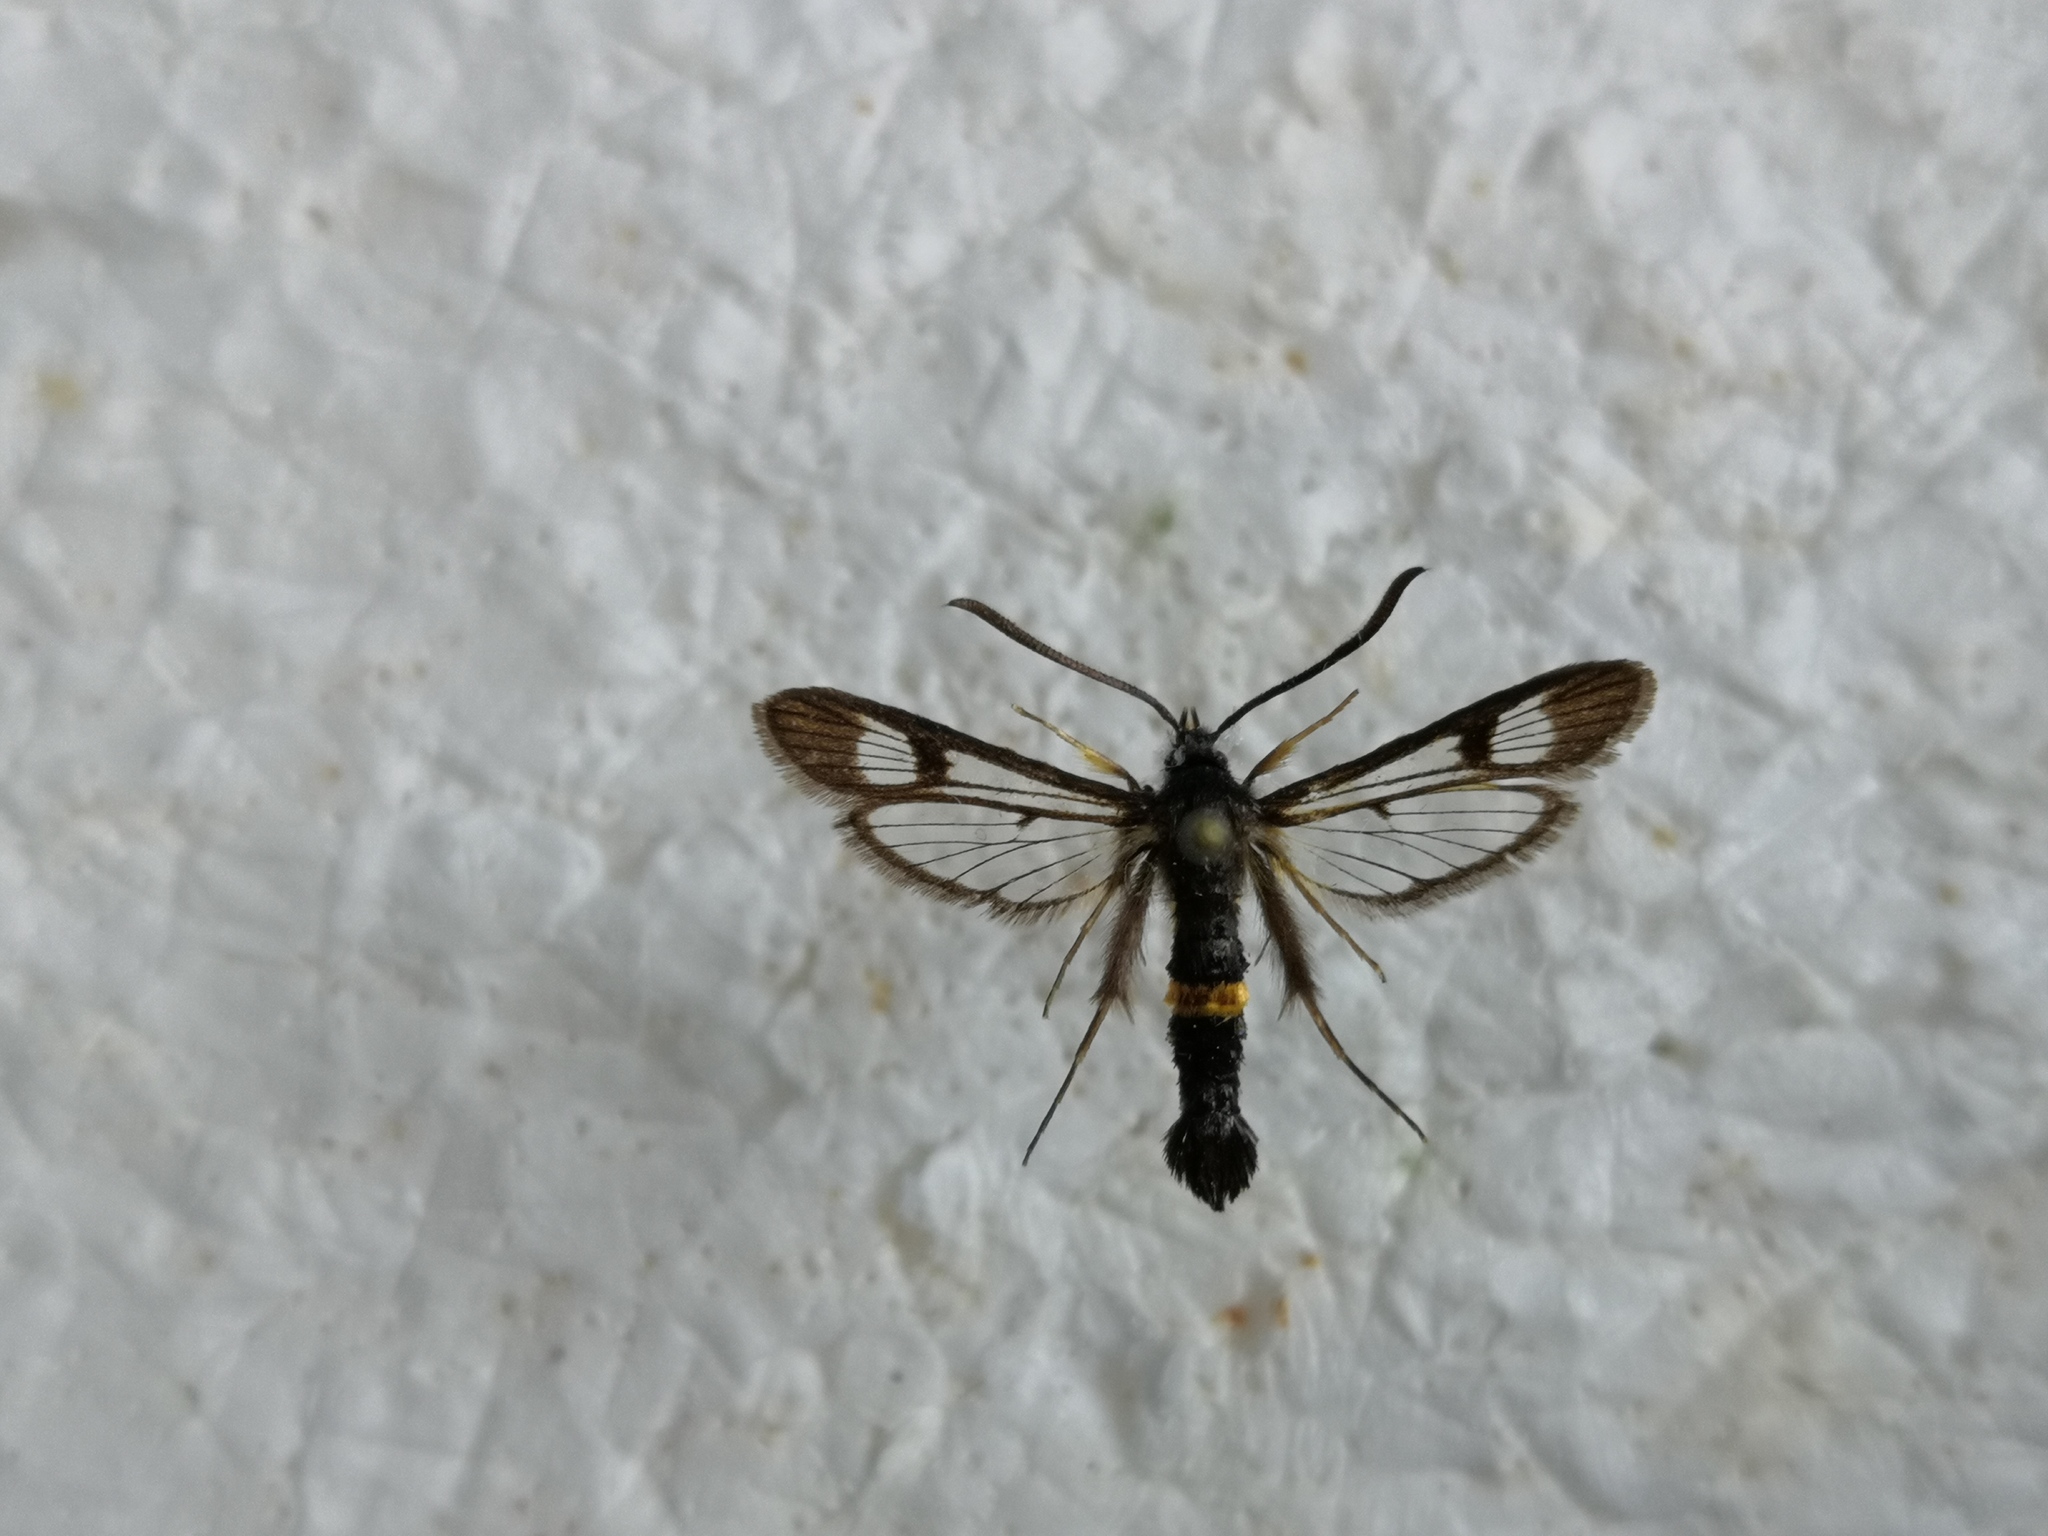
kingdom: Animalia
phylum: Arthropoda
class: Insecta
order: Lepidoptera
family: Sesiidae
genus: Synanthedon
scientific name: Synanthedon soffneri
